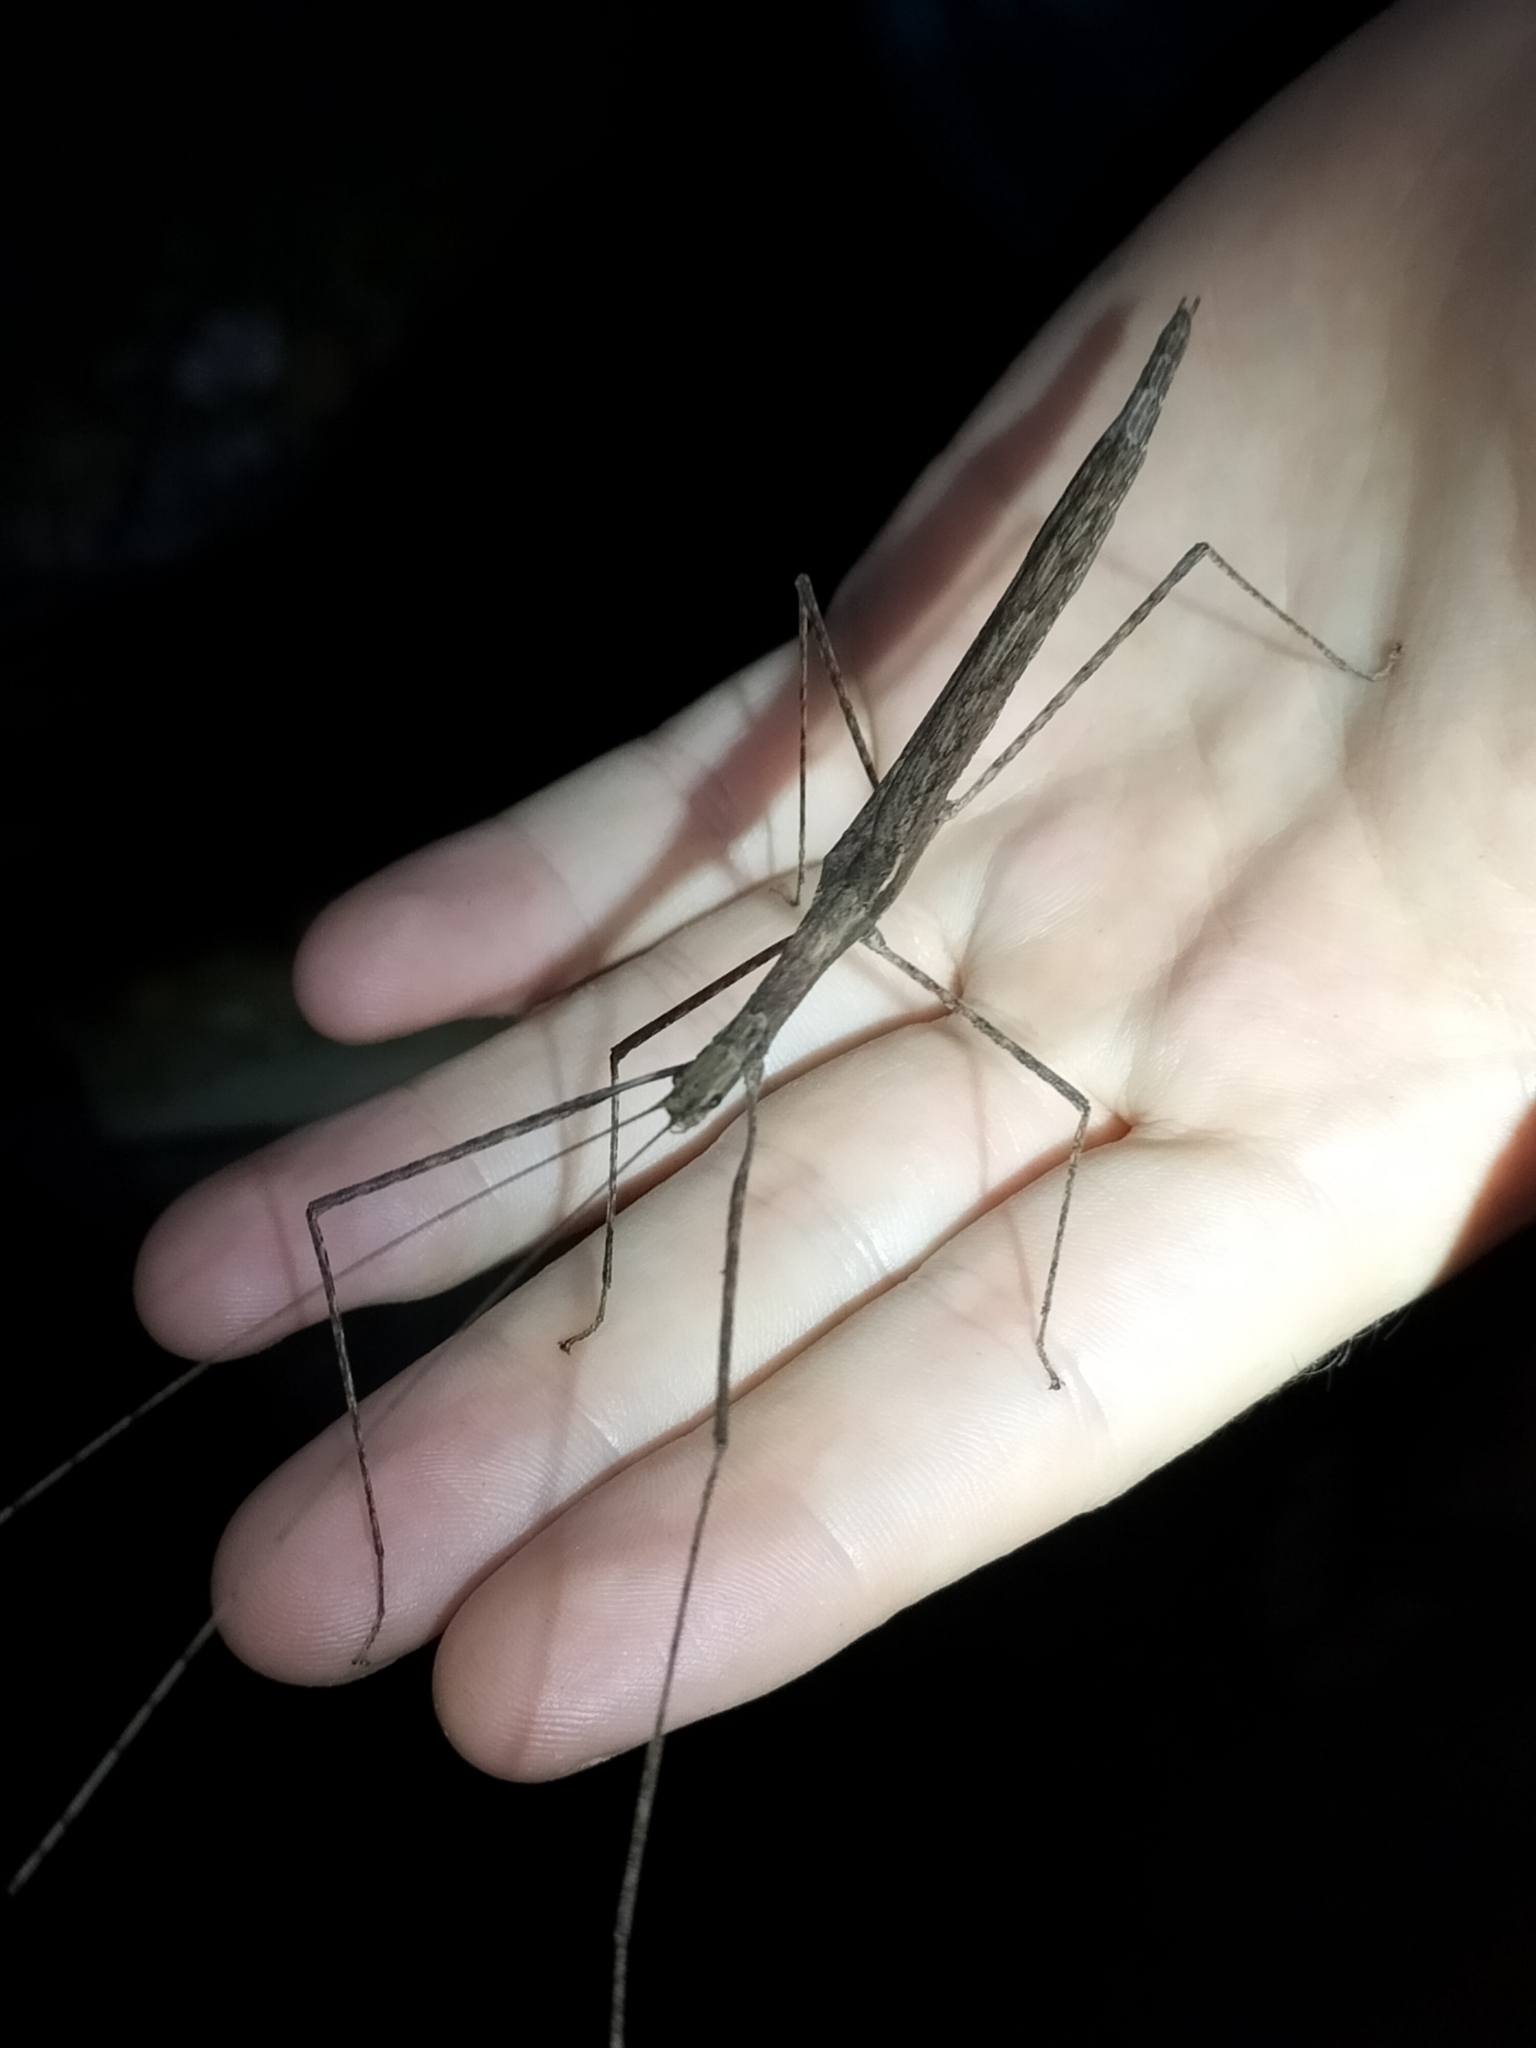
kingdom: Animalia
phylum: Arthropoda
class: Insecta
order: Phasmida
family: Lonchodidae
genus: Sipyloidea
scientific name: Sipyloidea larryi
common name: Hurricane larry stick-insect
